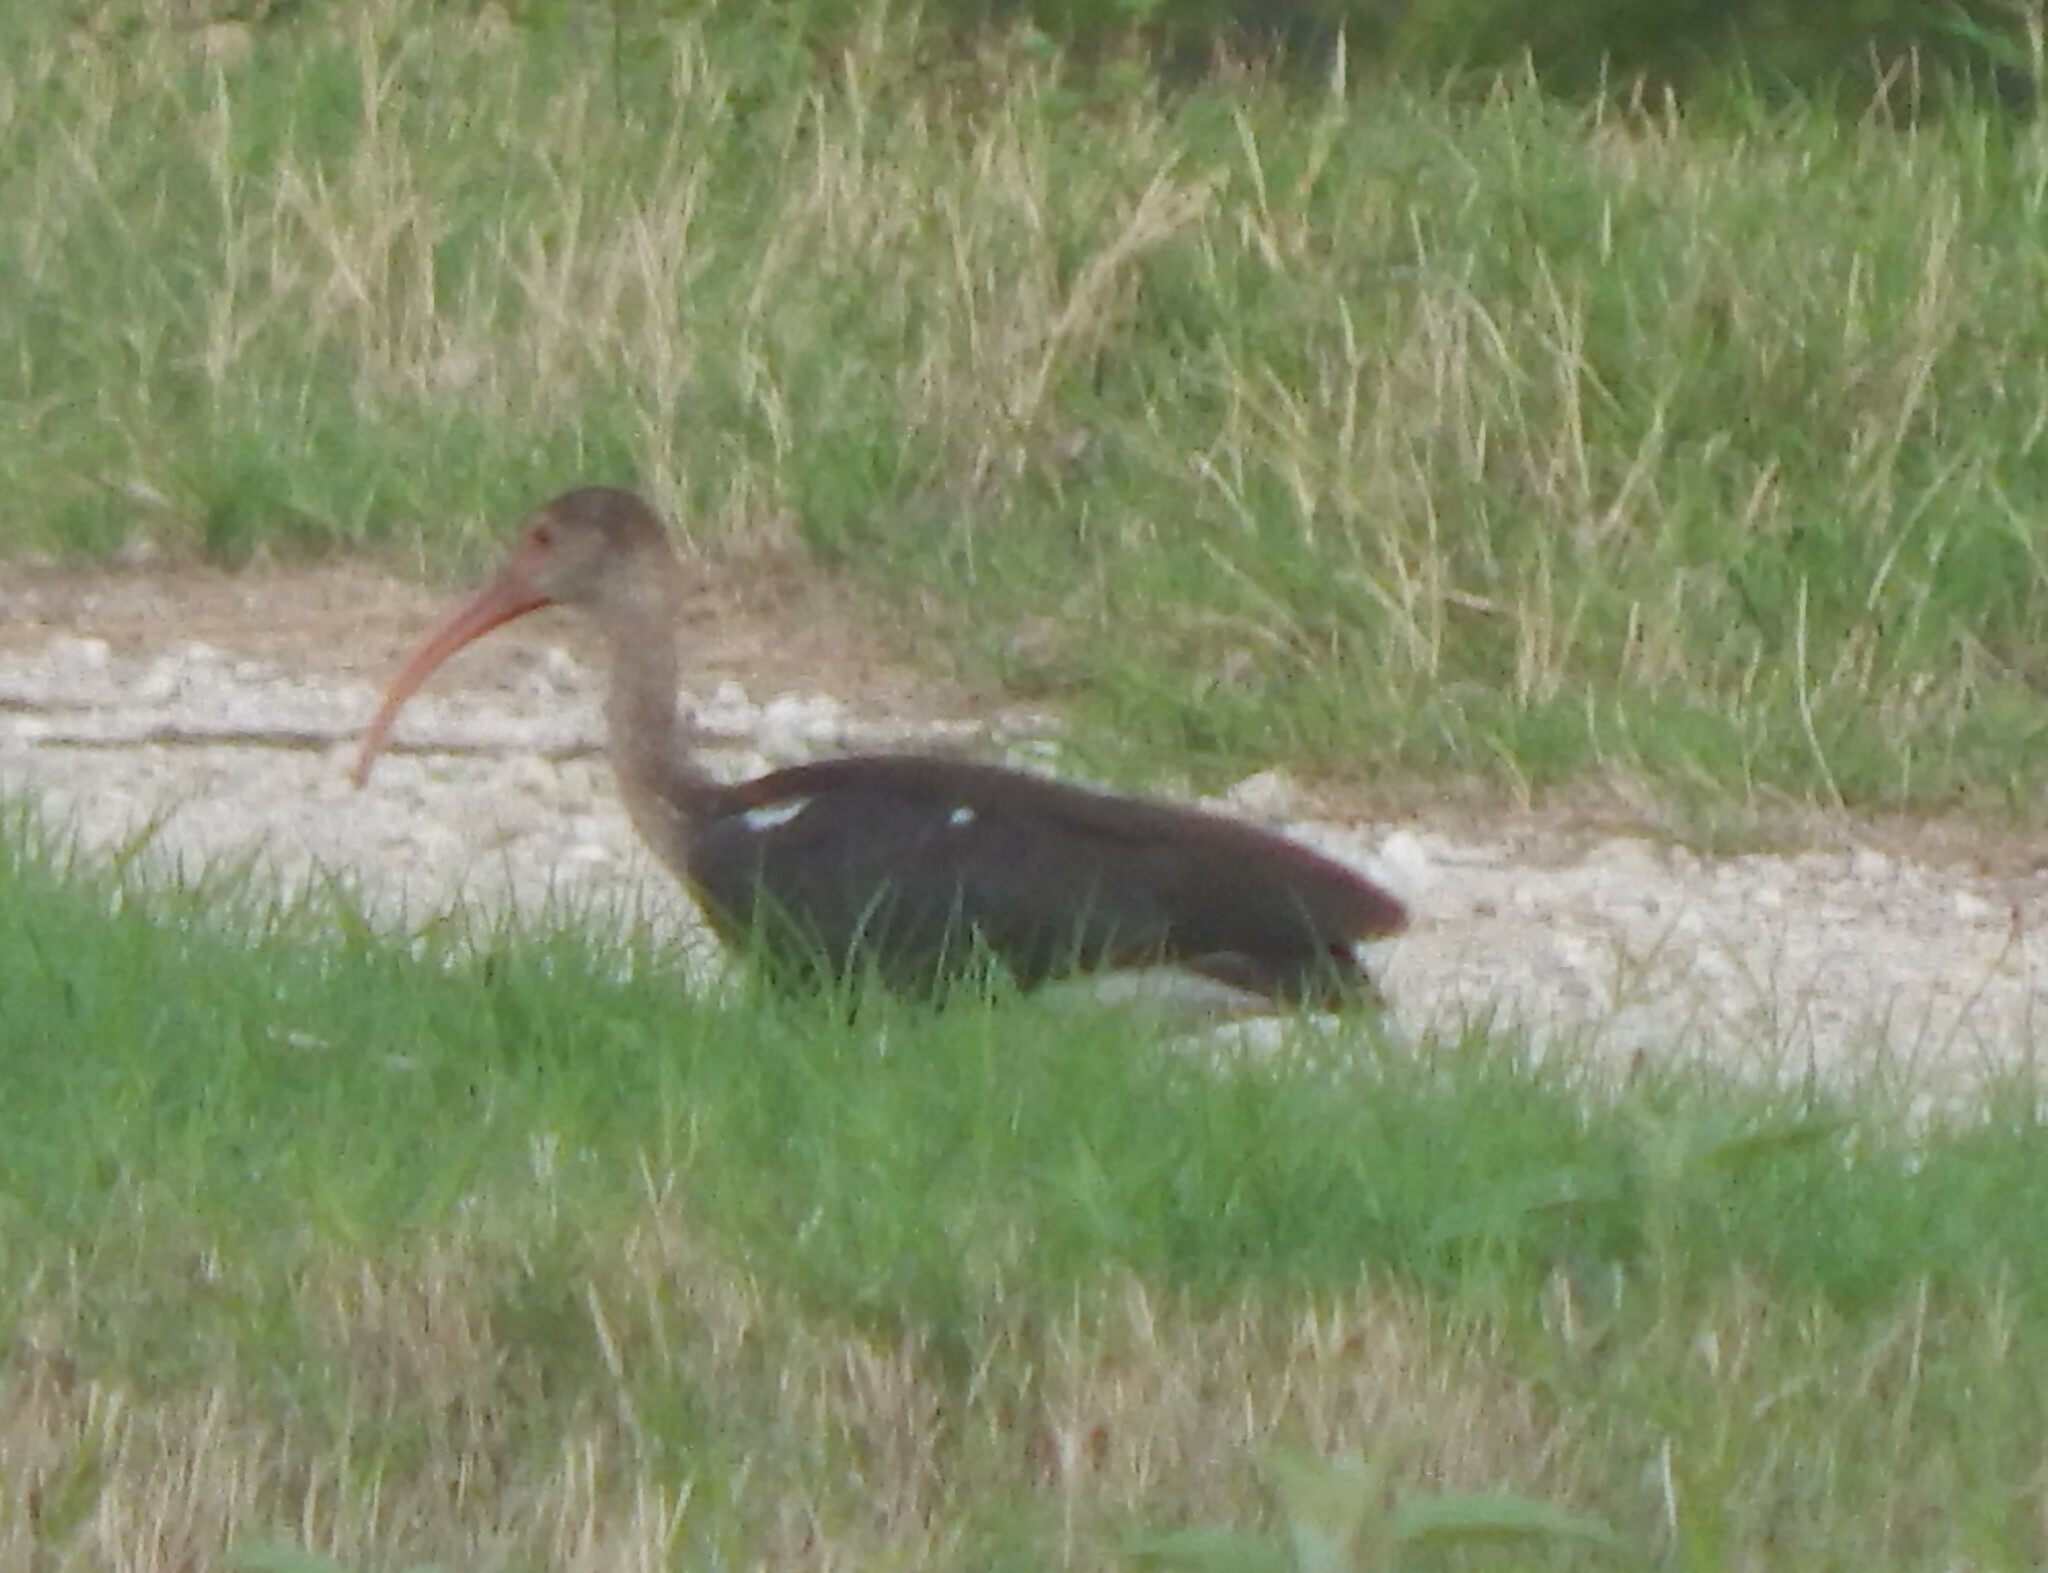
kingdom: Animalia
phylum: Chordata
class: Aves
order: Pelecaniformes
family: Threskiornithidae
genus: Eudocimus
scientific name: Eudocimus albus
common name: White ibis
